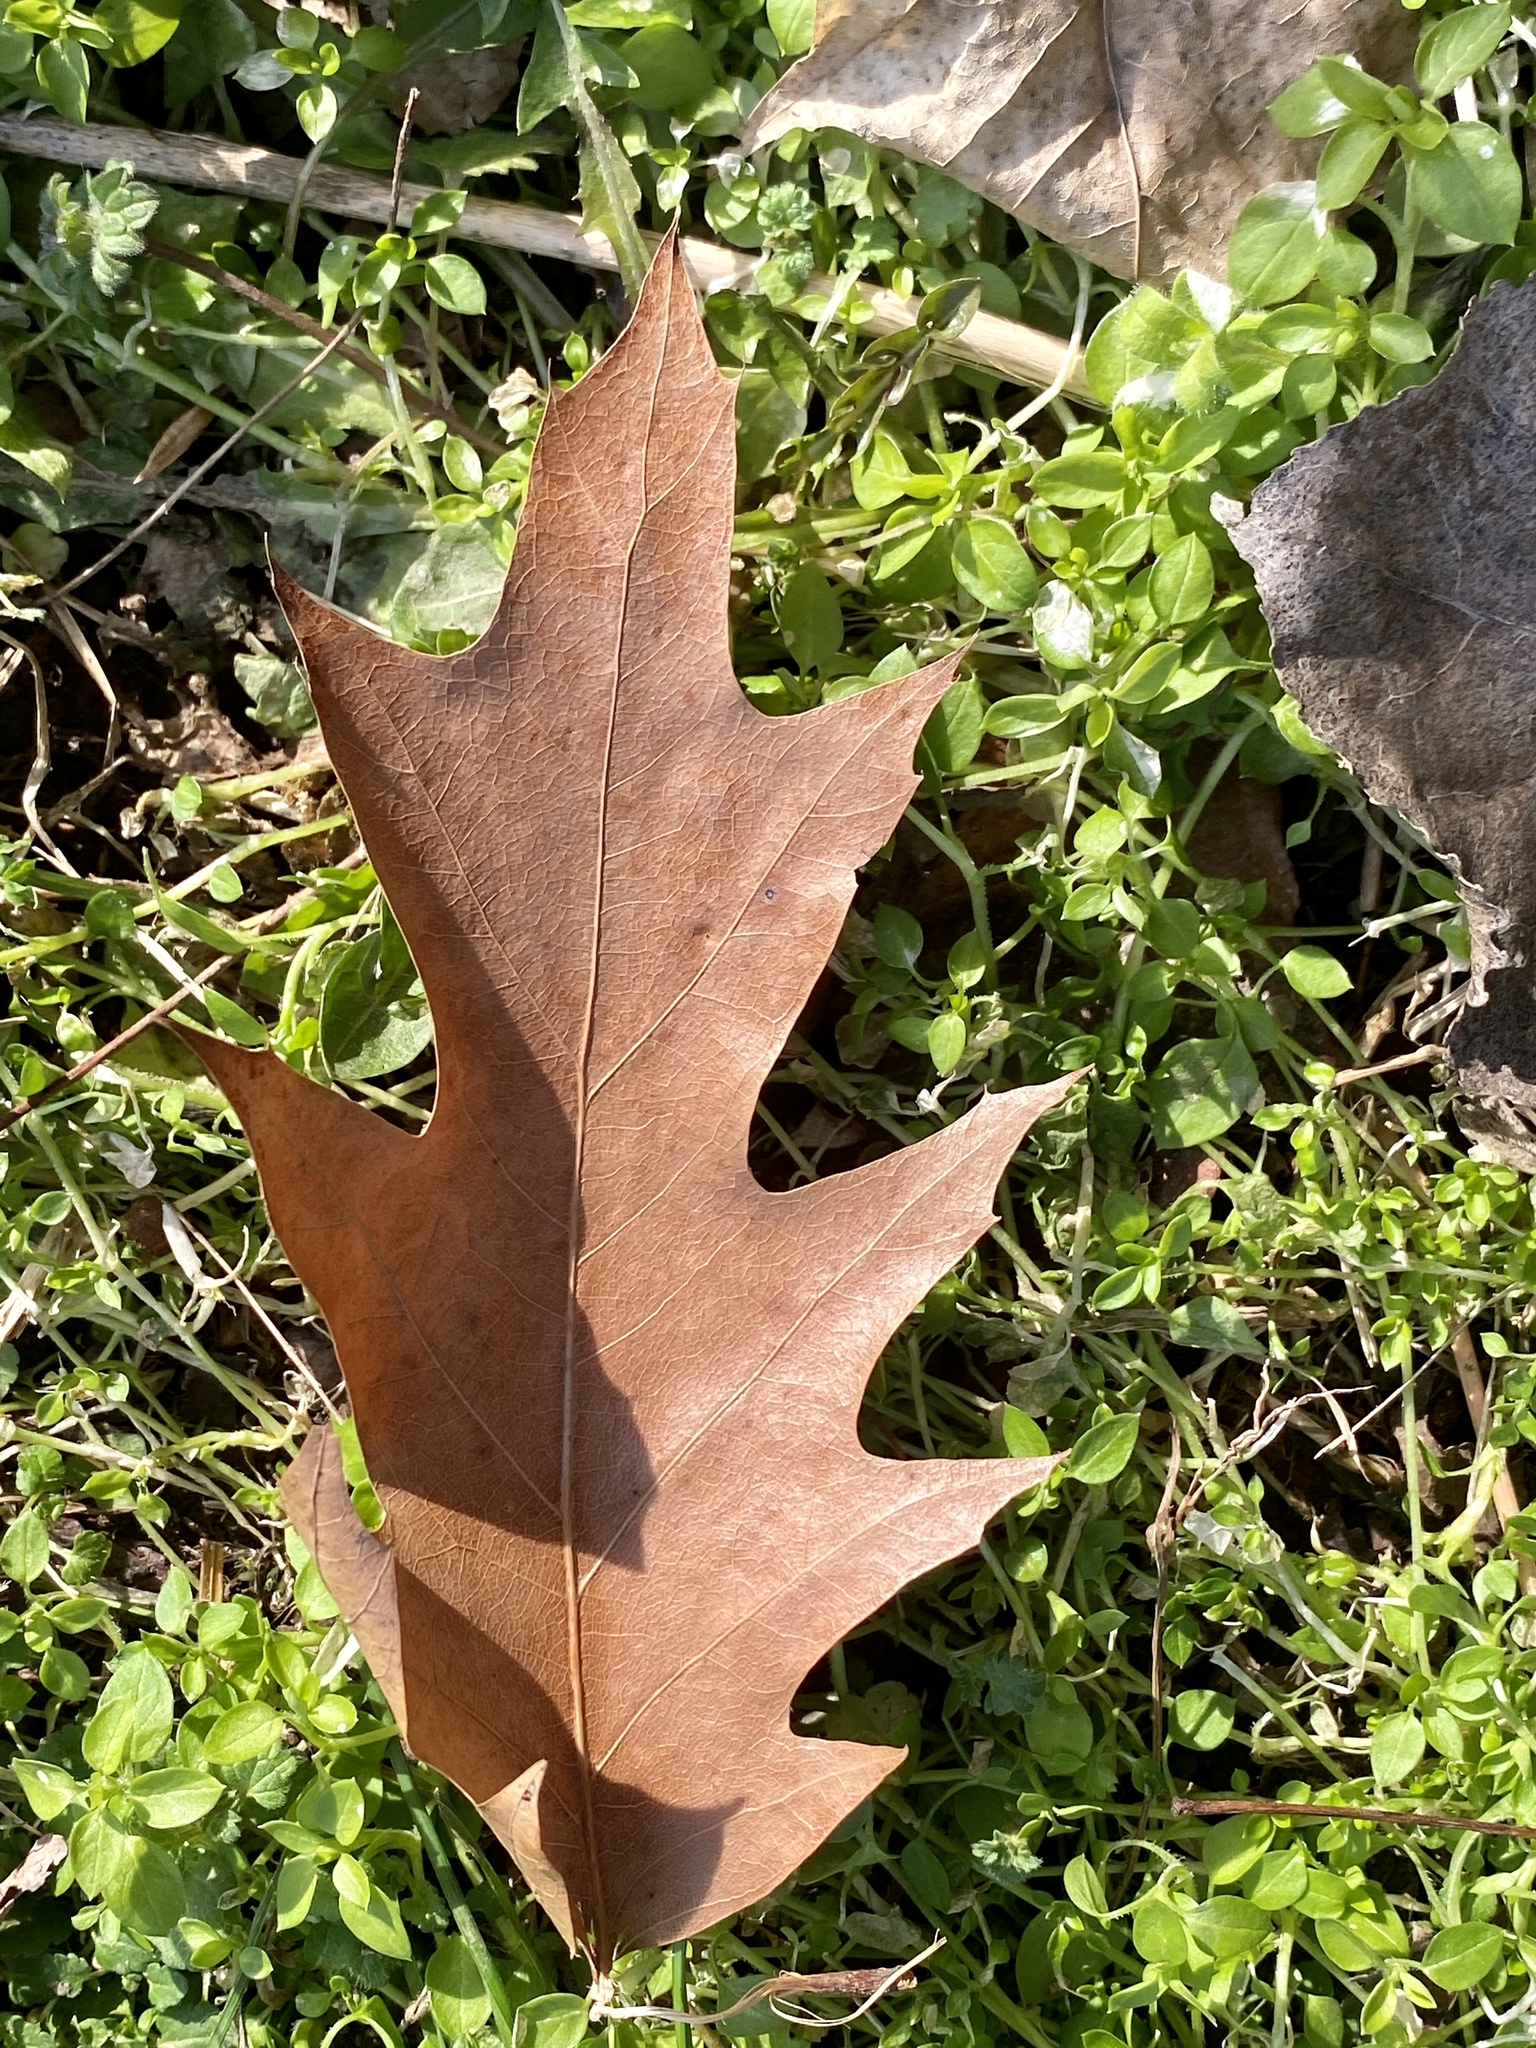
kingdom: Plantae
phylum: Tracheophyta
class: Magnoliopsida
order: Fagales
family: Fagaceae
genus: Quercus
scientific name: Quercus rubra
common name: Red oak
